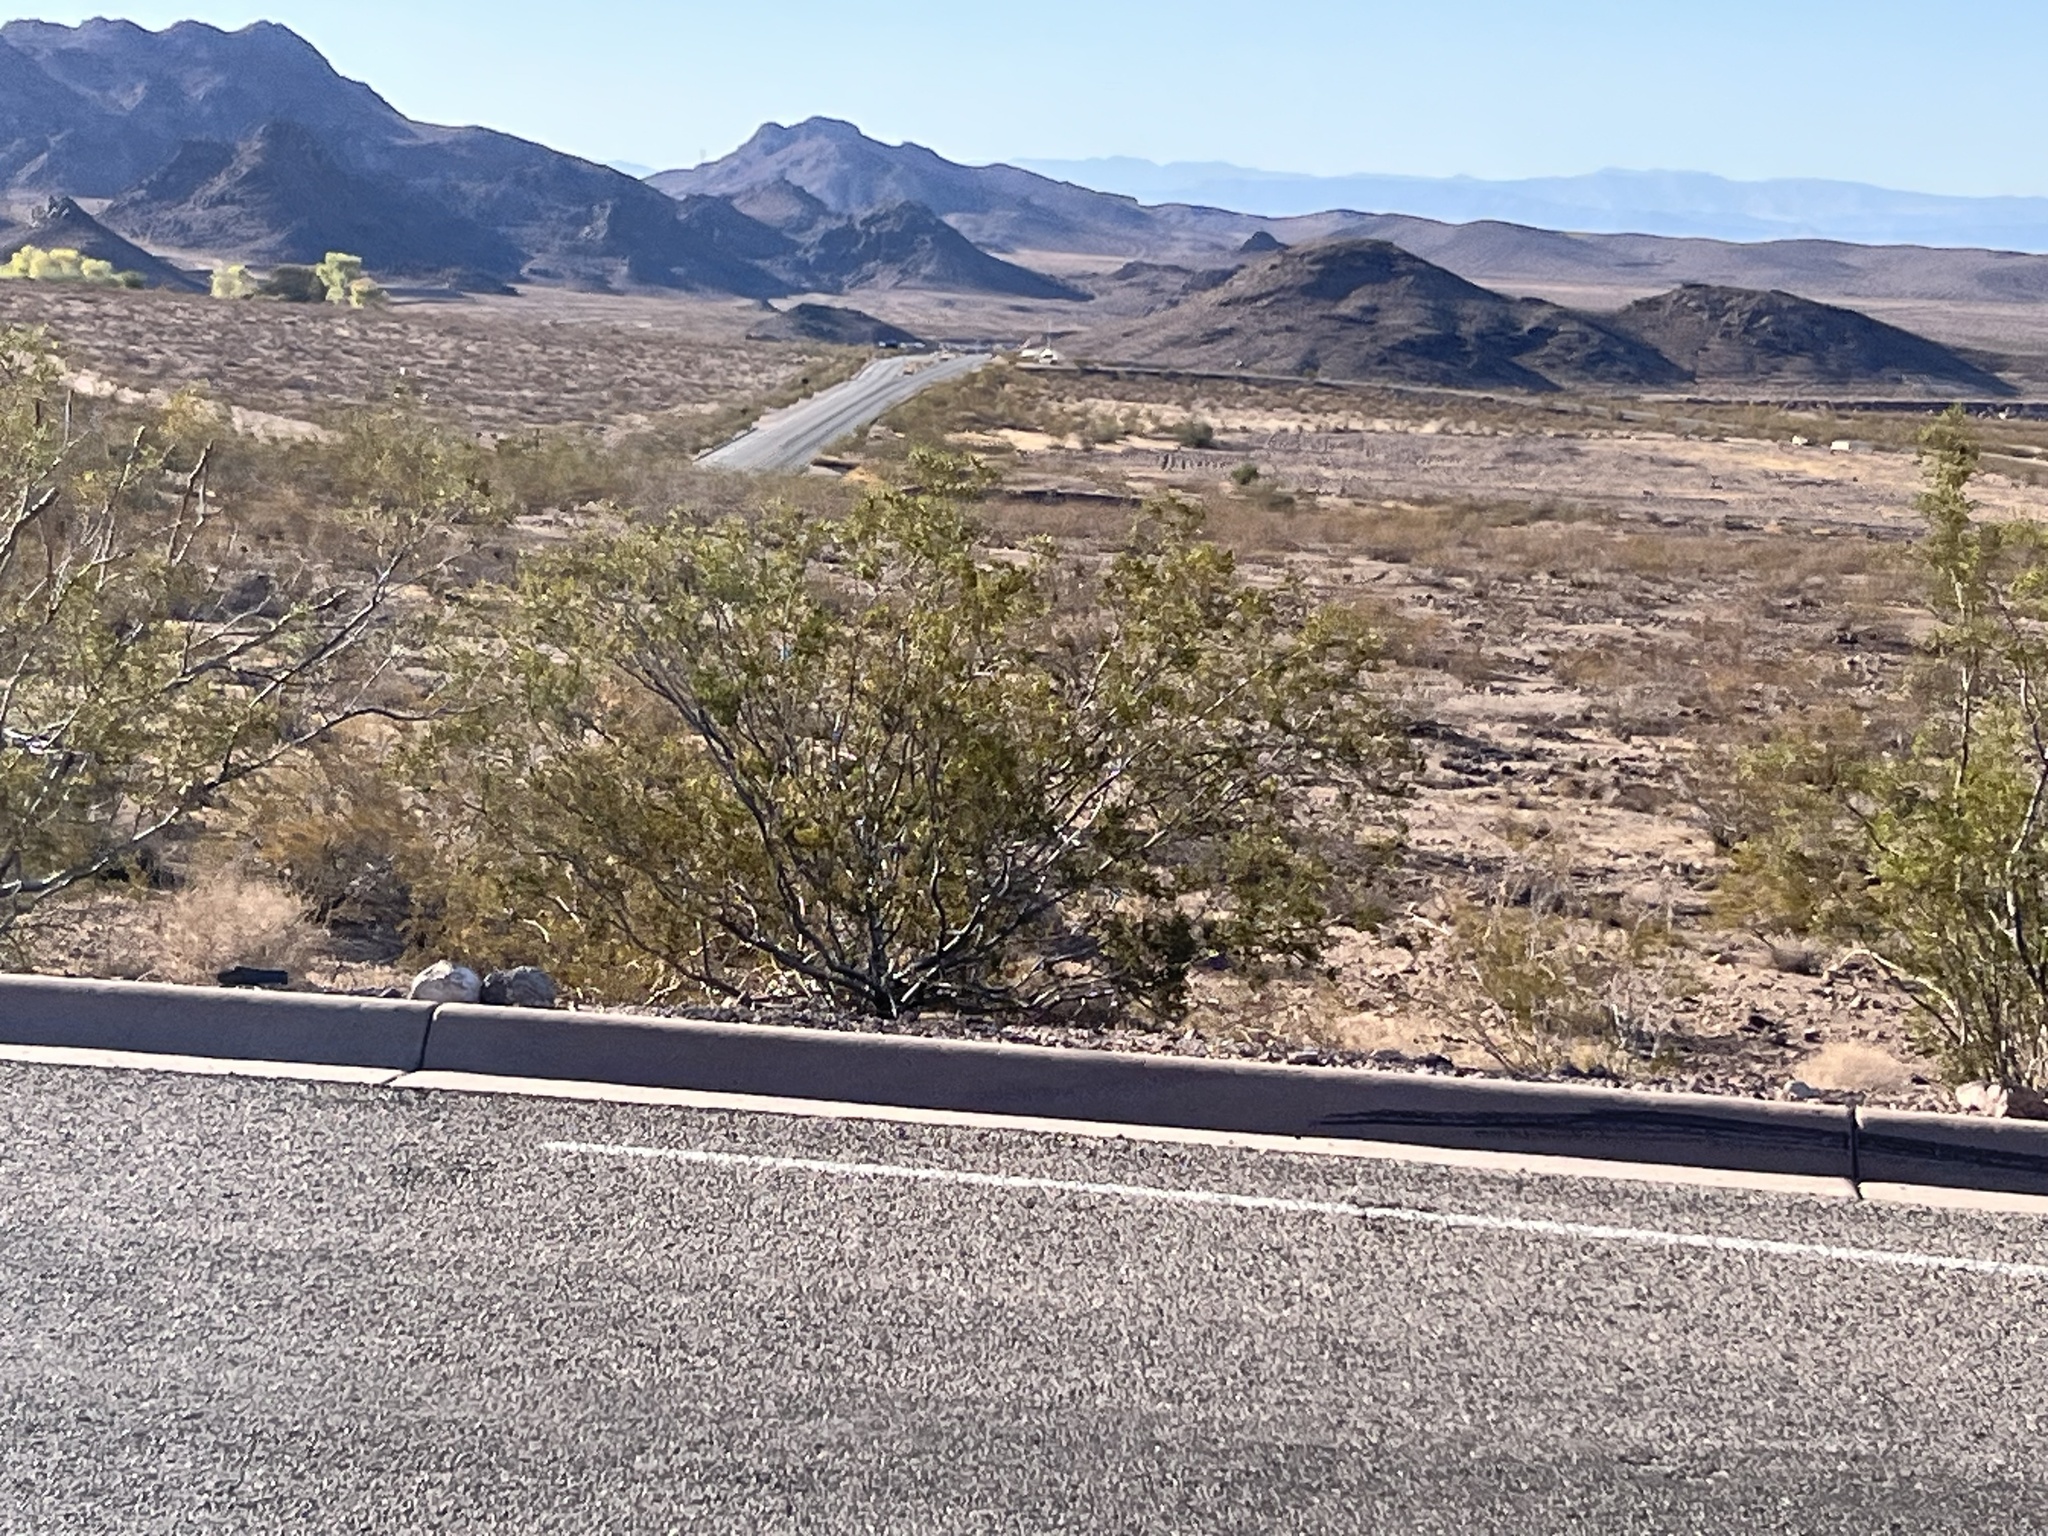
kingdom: Plantae
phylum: Tracheophyta
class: Magnoliopsida
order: Zygophyllales
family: Zygophyllaceae
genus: Larrea
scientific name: Larrea tridentata
